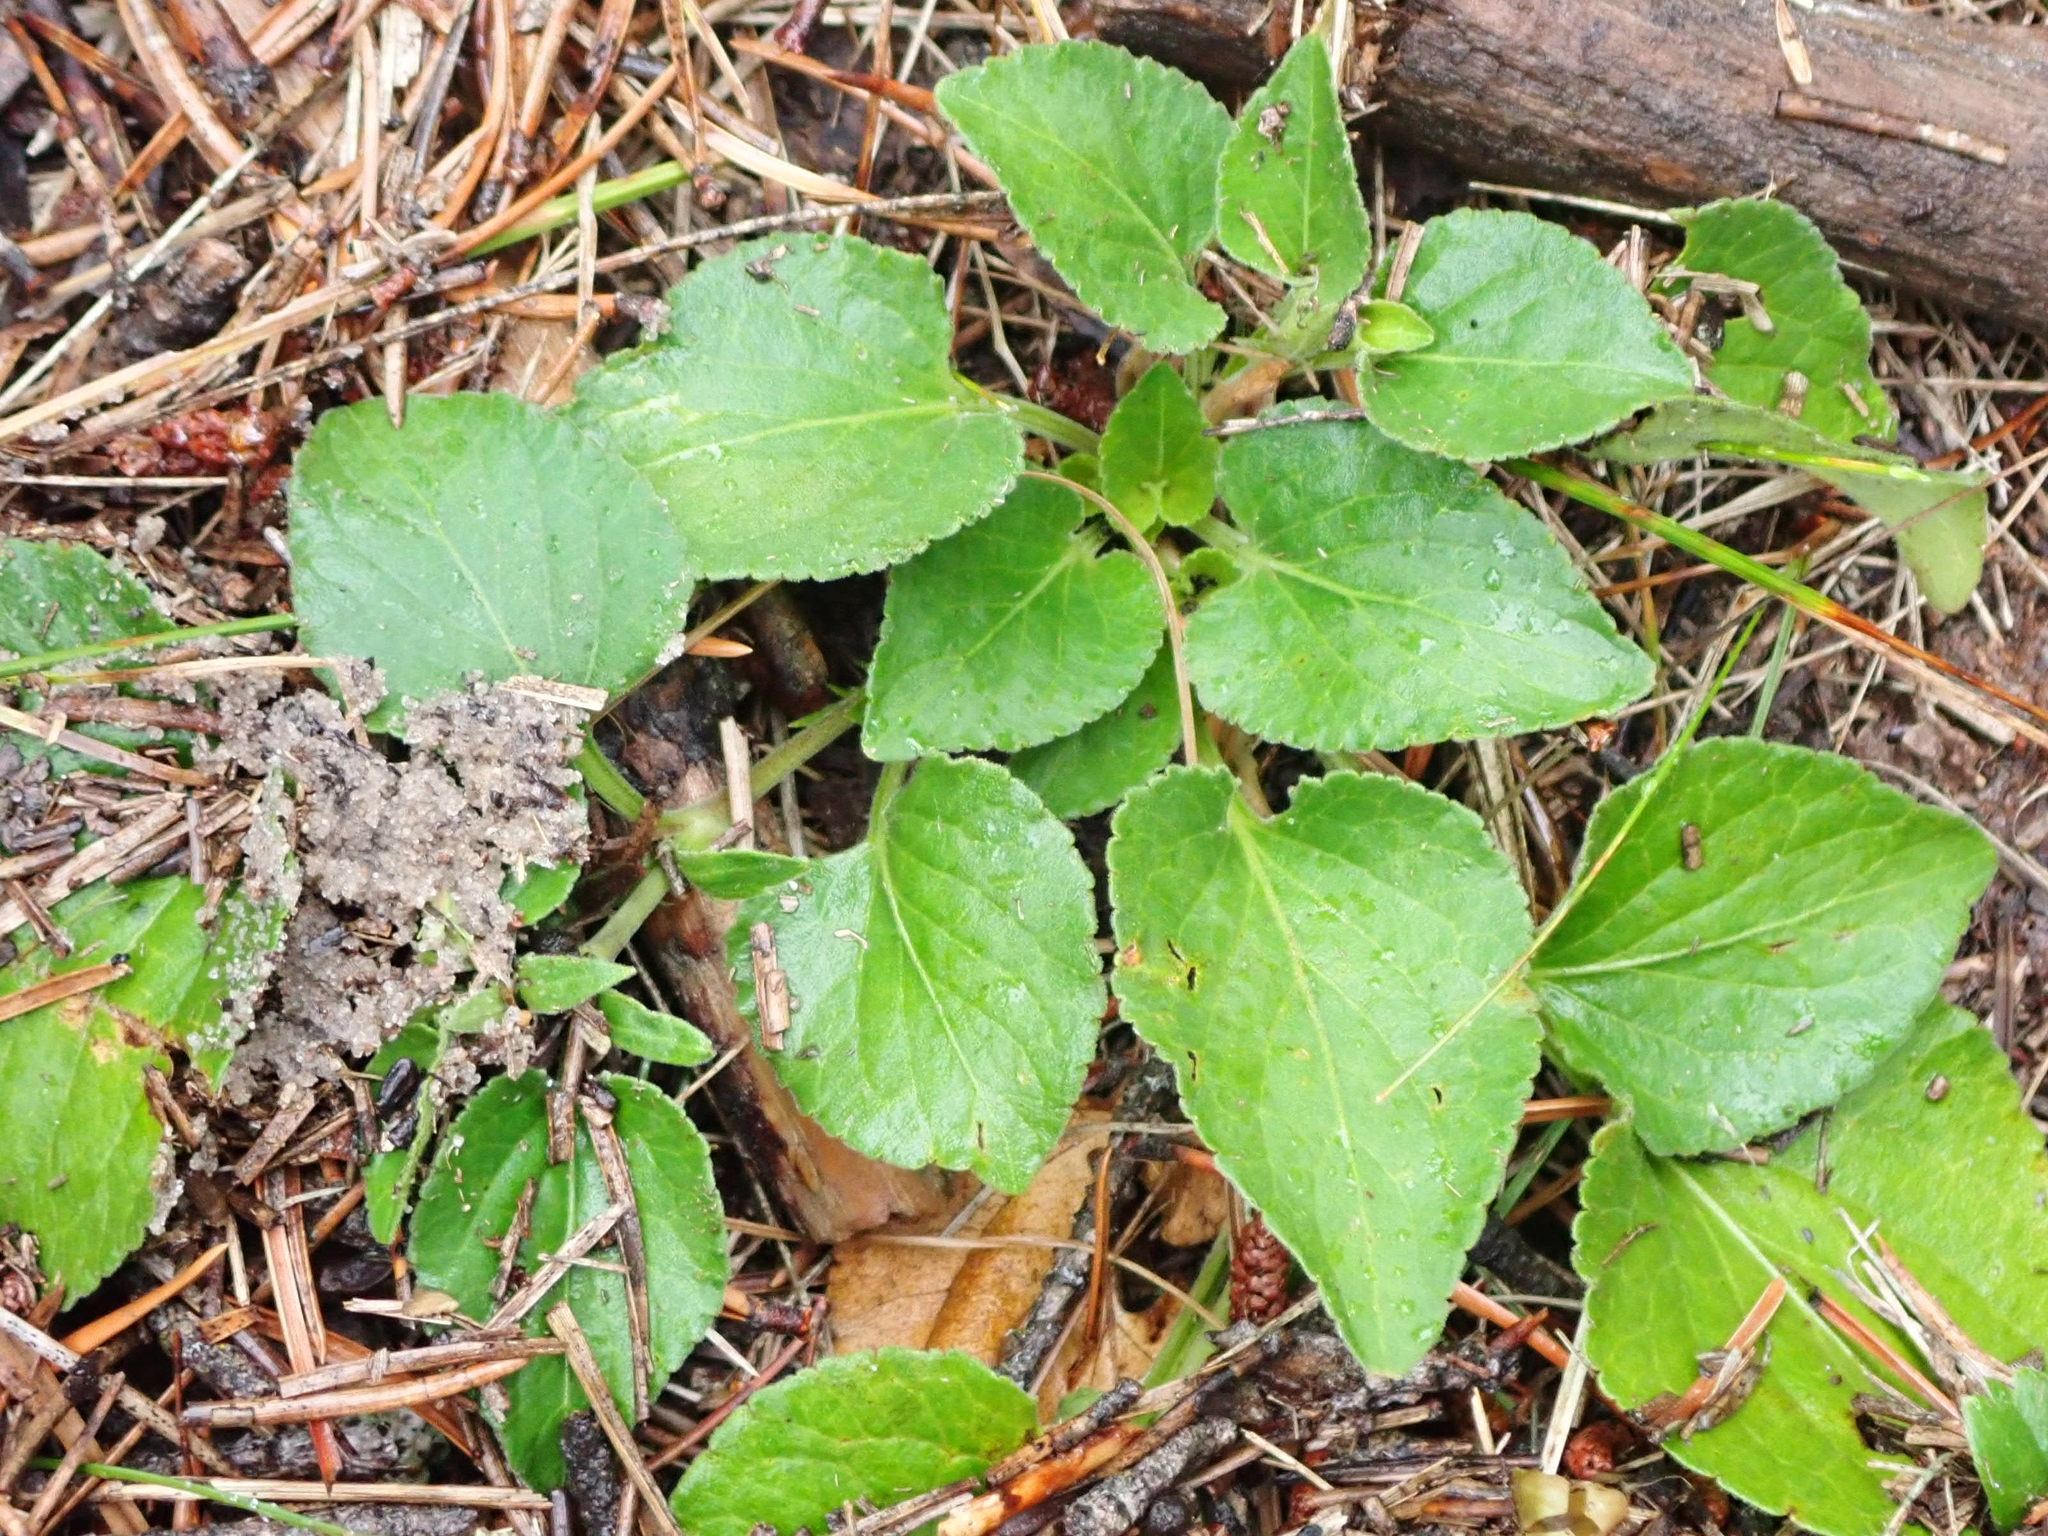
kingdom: Plantae
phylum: Tracheophyta
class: Magnoliopsida
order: Malpighiales
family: Violaceae
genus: Viola
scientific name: Viola adunca
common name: Sand violet
